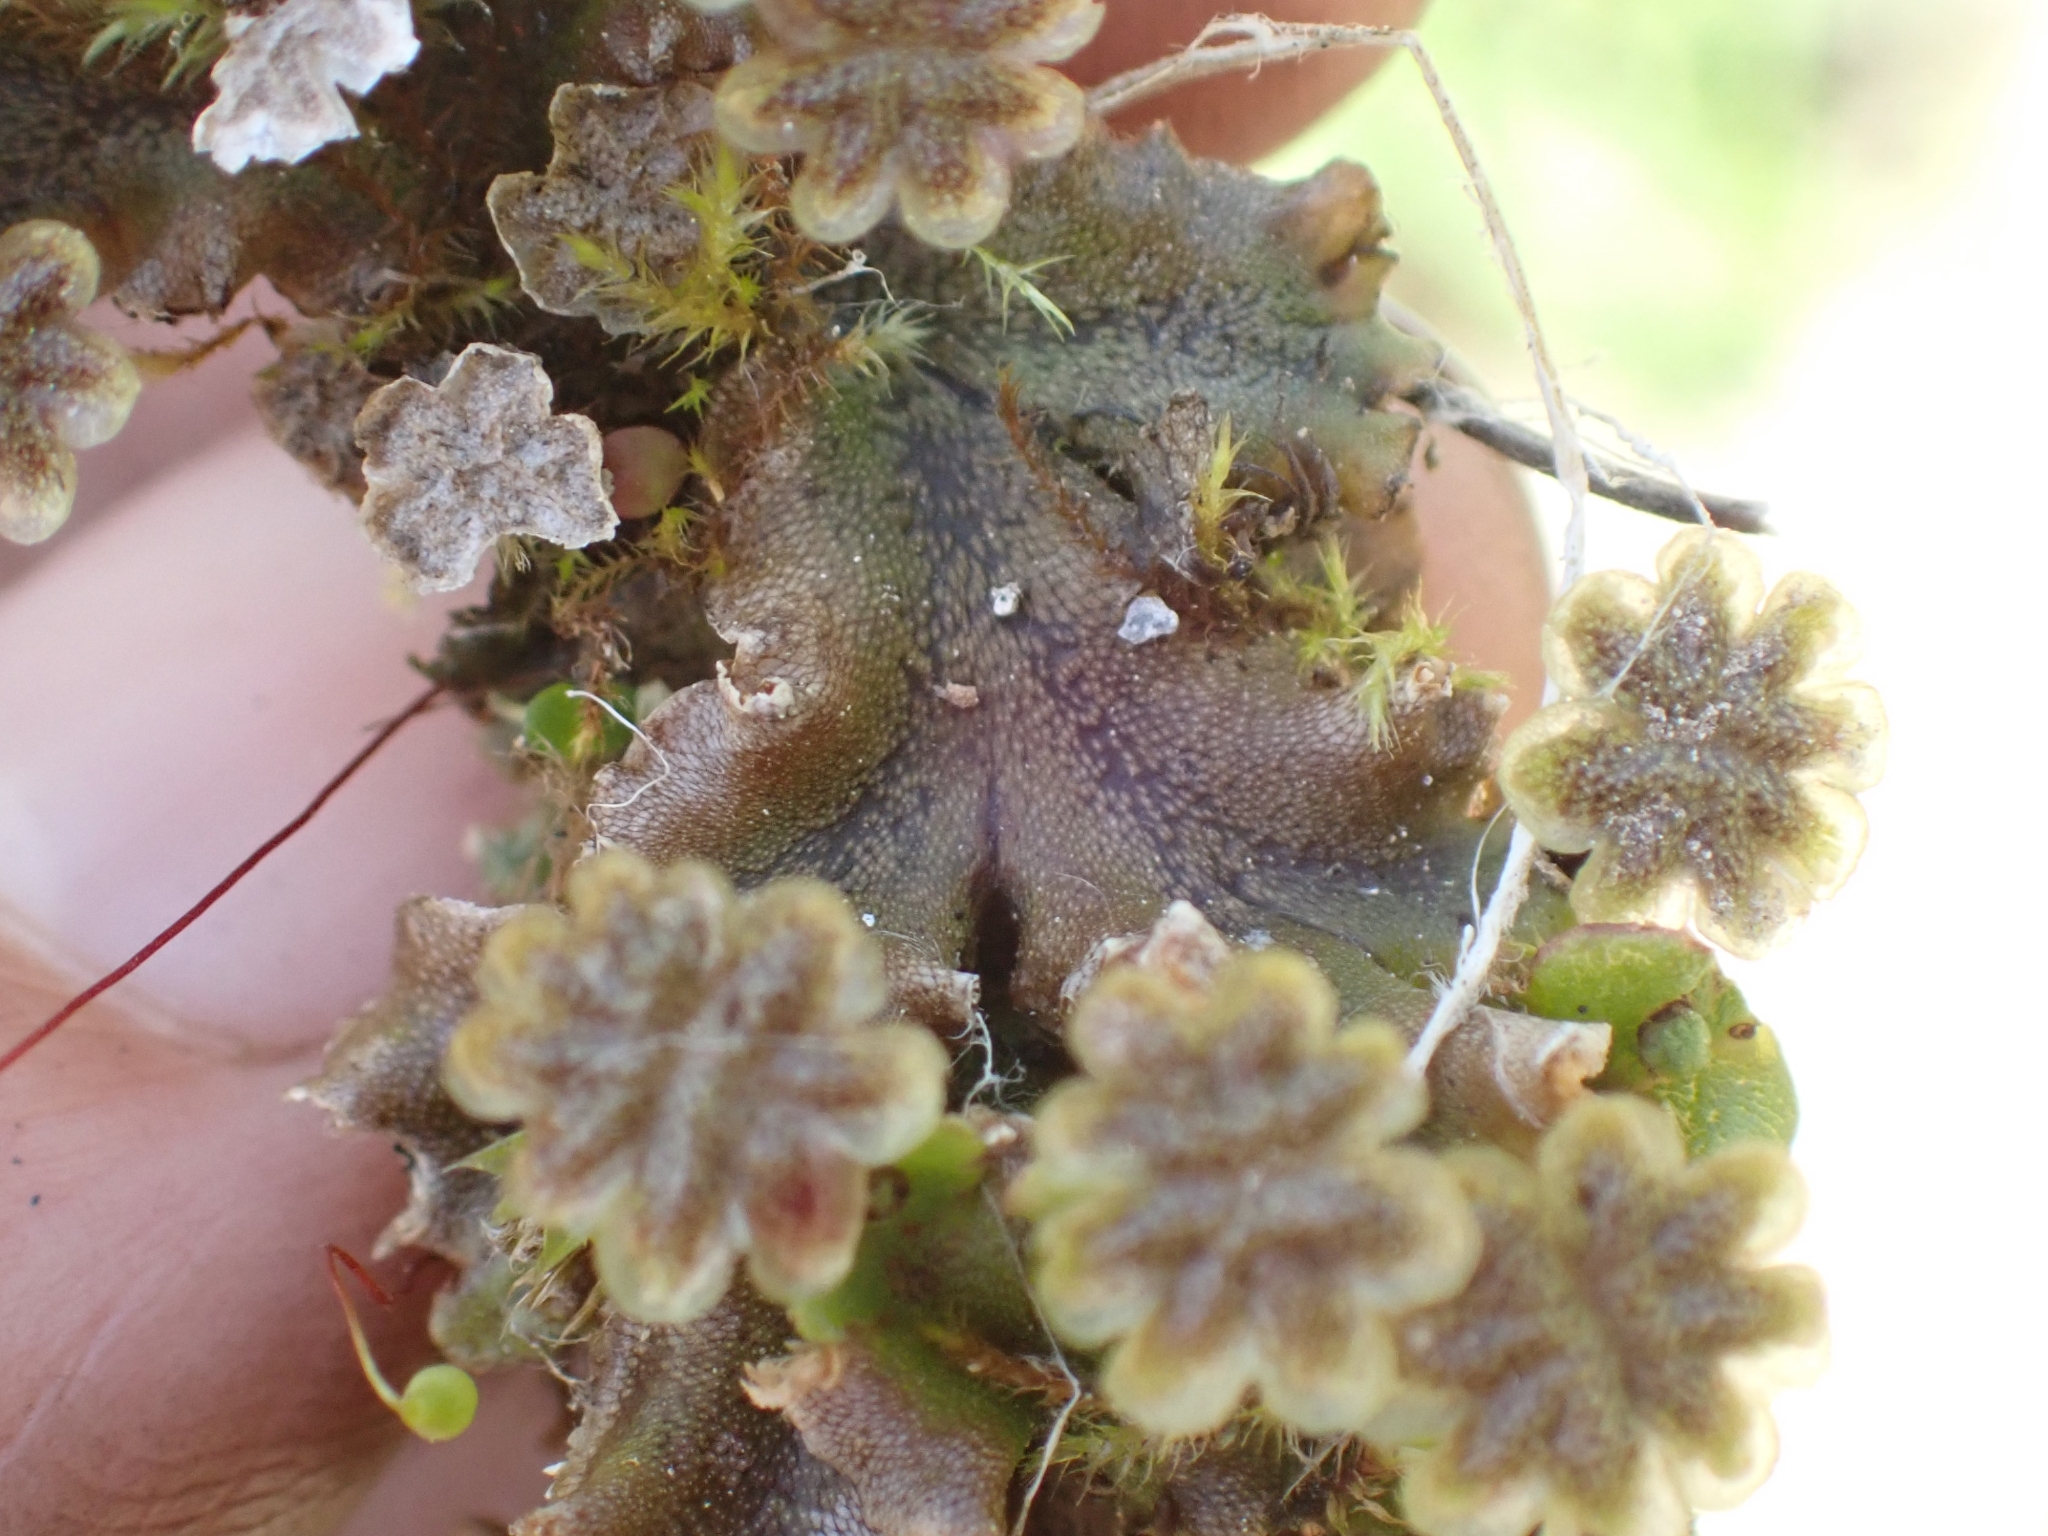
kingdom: Plantae
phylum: Marchantiophyta
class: Marchantiopsida
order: Marchantiales
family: Marchantiaceae
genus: Marchantia
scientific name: Marchantia polymorpha
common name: Common liverwort
